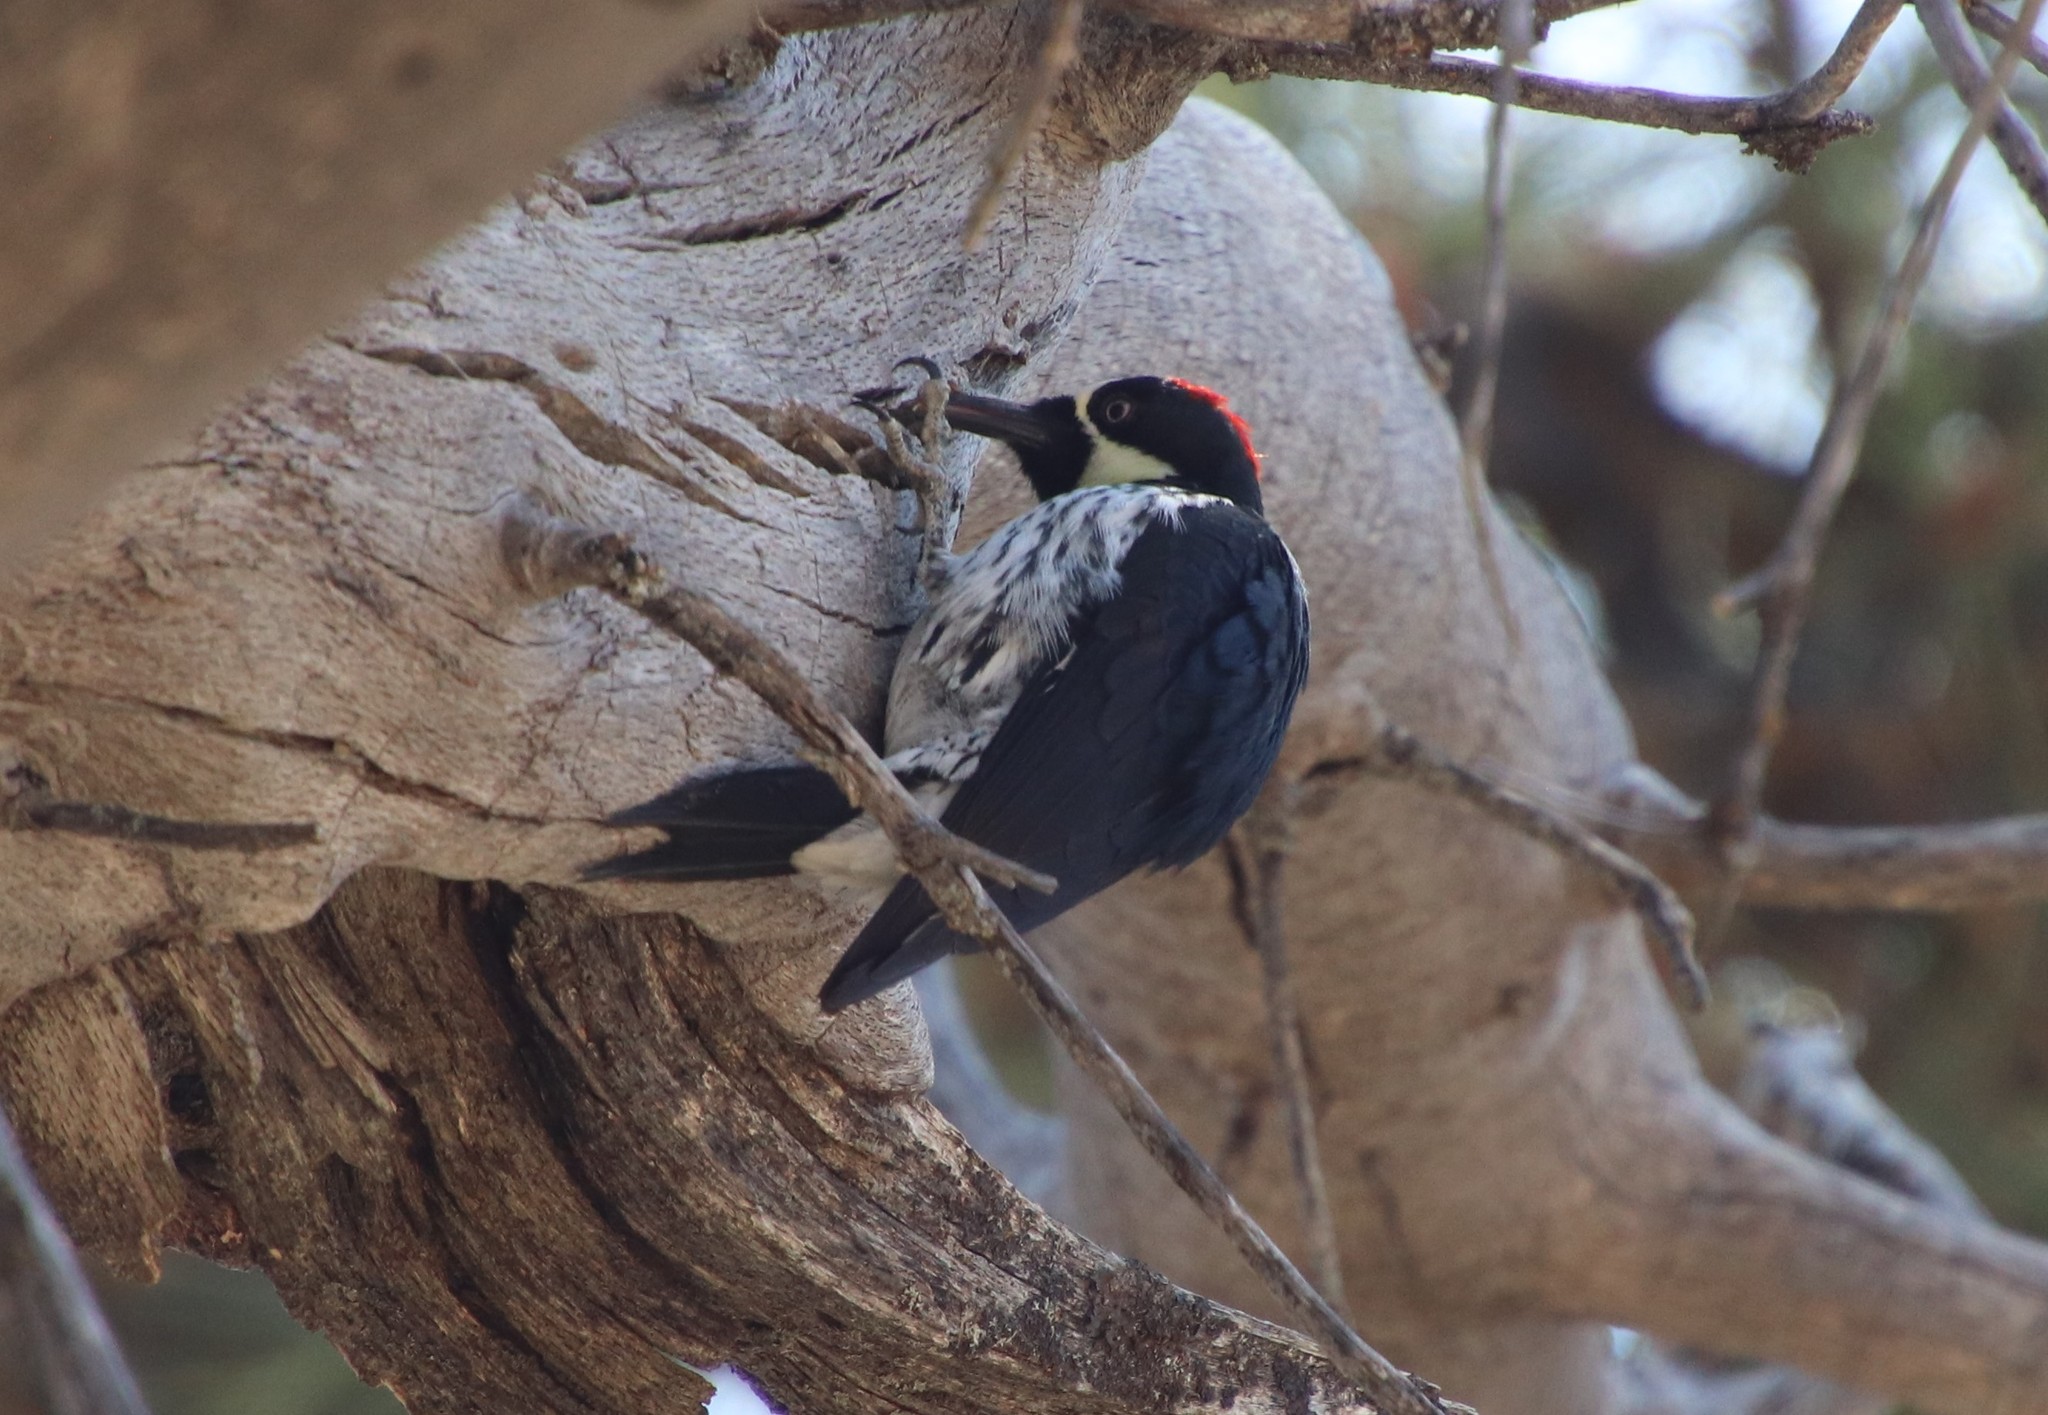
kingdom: Animalia
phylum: Chordata
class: Aves
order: Piciformes
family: Picidae
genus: Melanerpes
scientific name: Melanerpes formicivorus
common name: Acorn woodpecker
